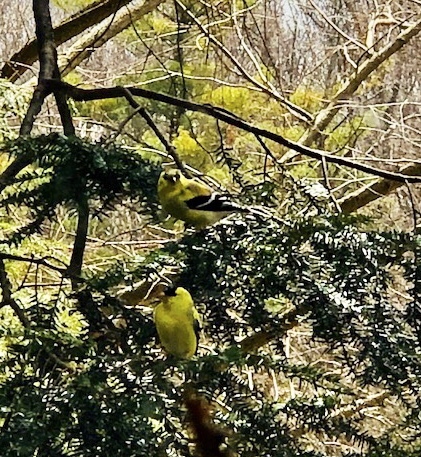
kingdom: Animalia
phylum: Chordata
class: Aves
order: Passeriformes
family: Fringillidae
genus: Spinus
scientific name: Spinus tristis
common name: American goldfinch
